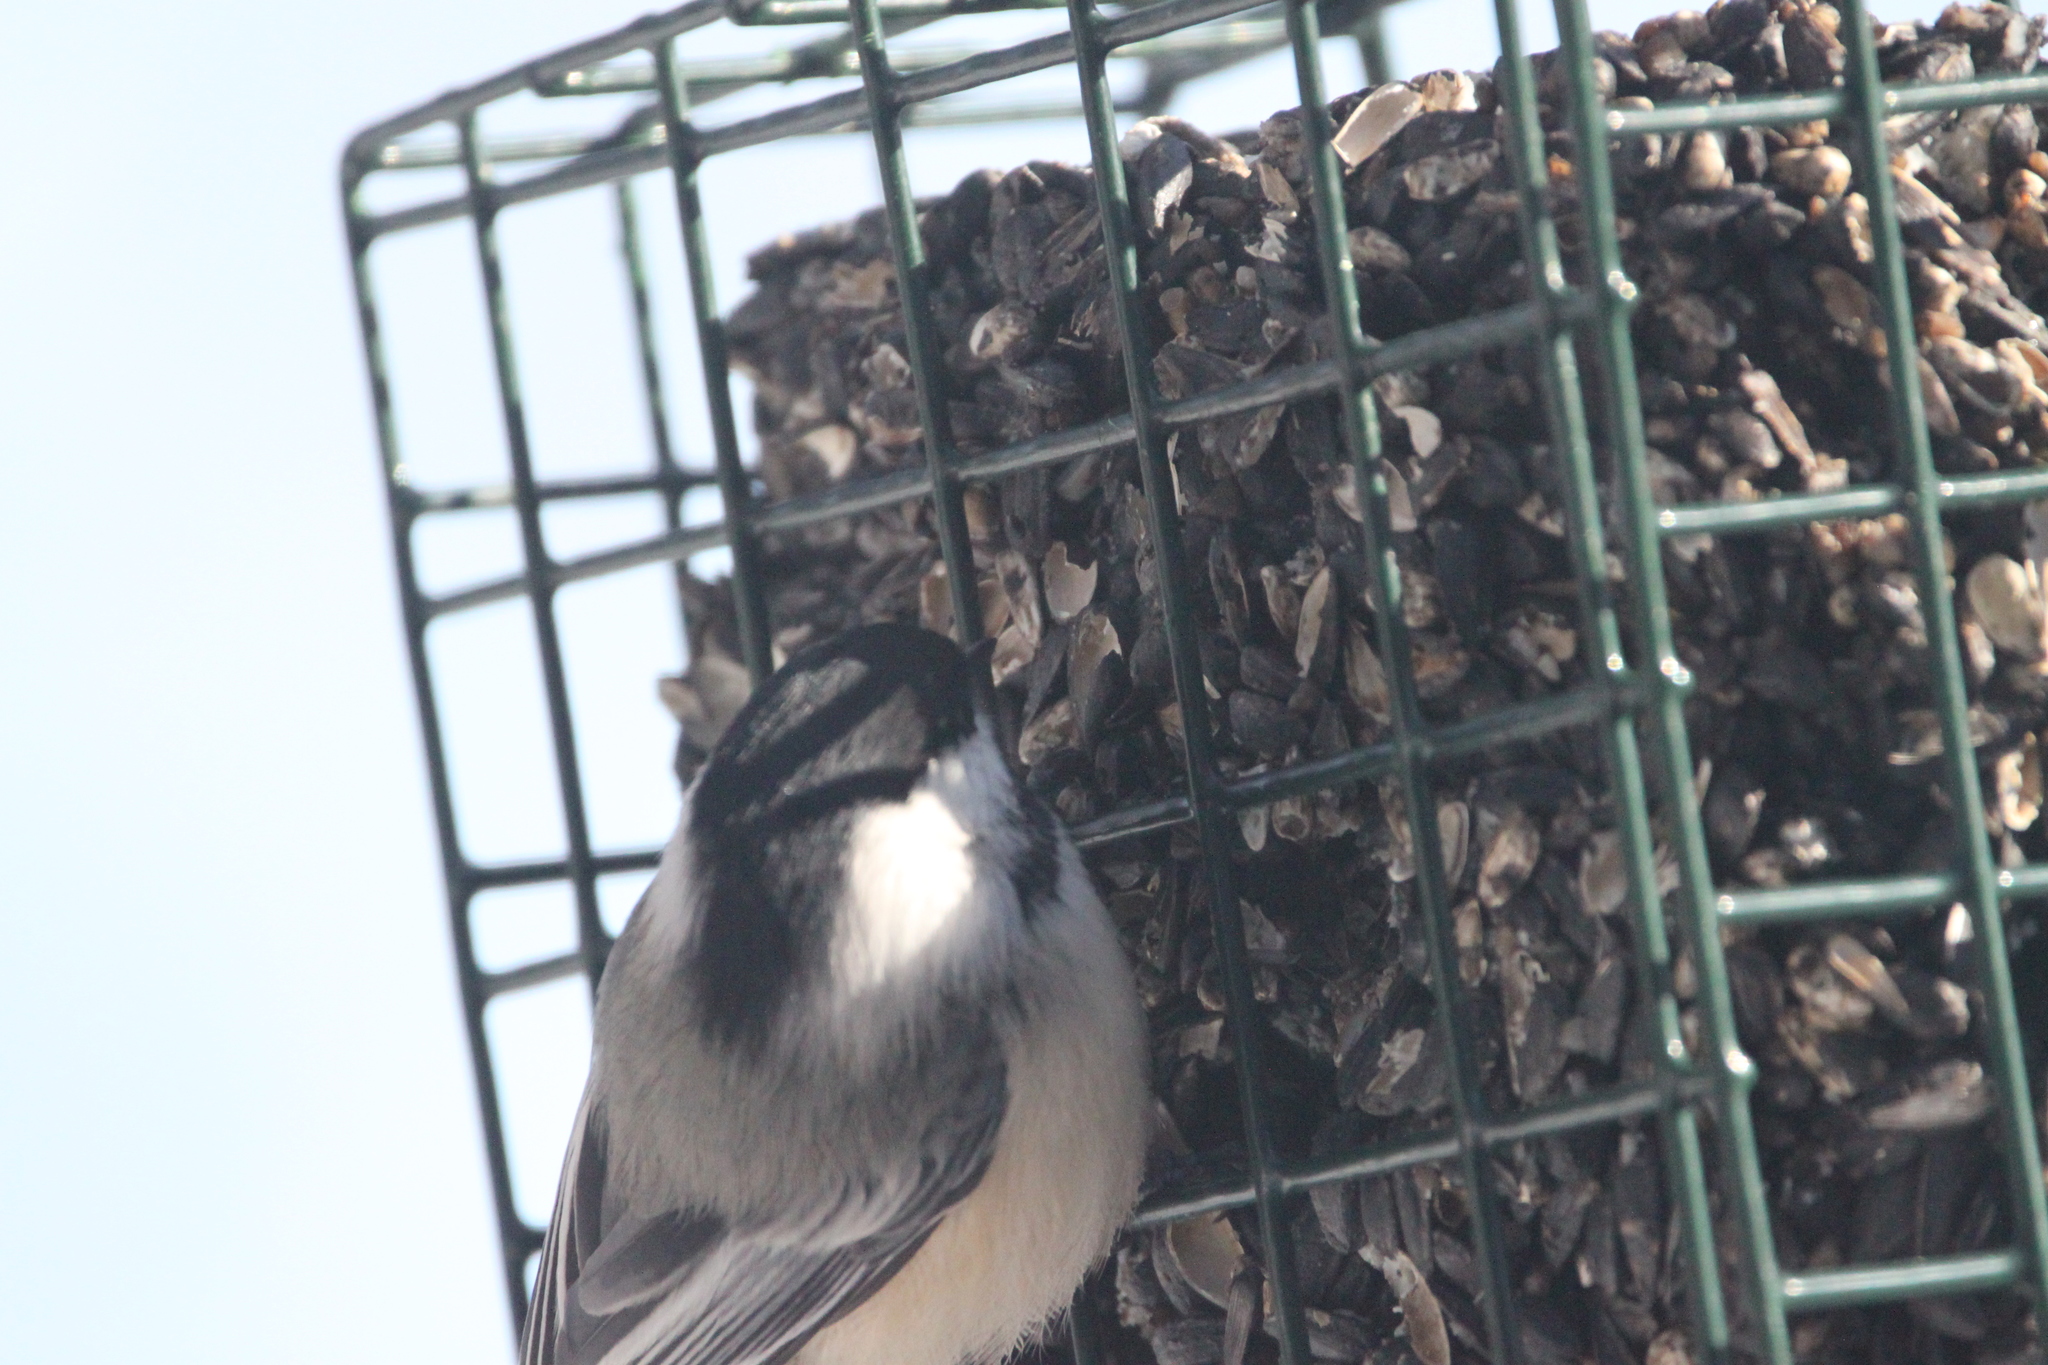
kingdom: Animalia
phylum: Chordata
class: Aves
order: Passeriformes
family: Paridae
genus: Poecile
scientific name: Poecile atricapillus
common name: Black-capped chickadee
